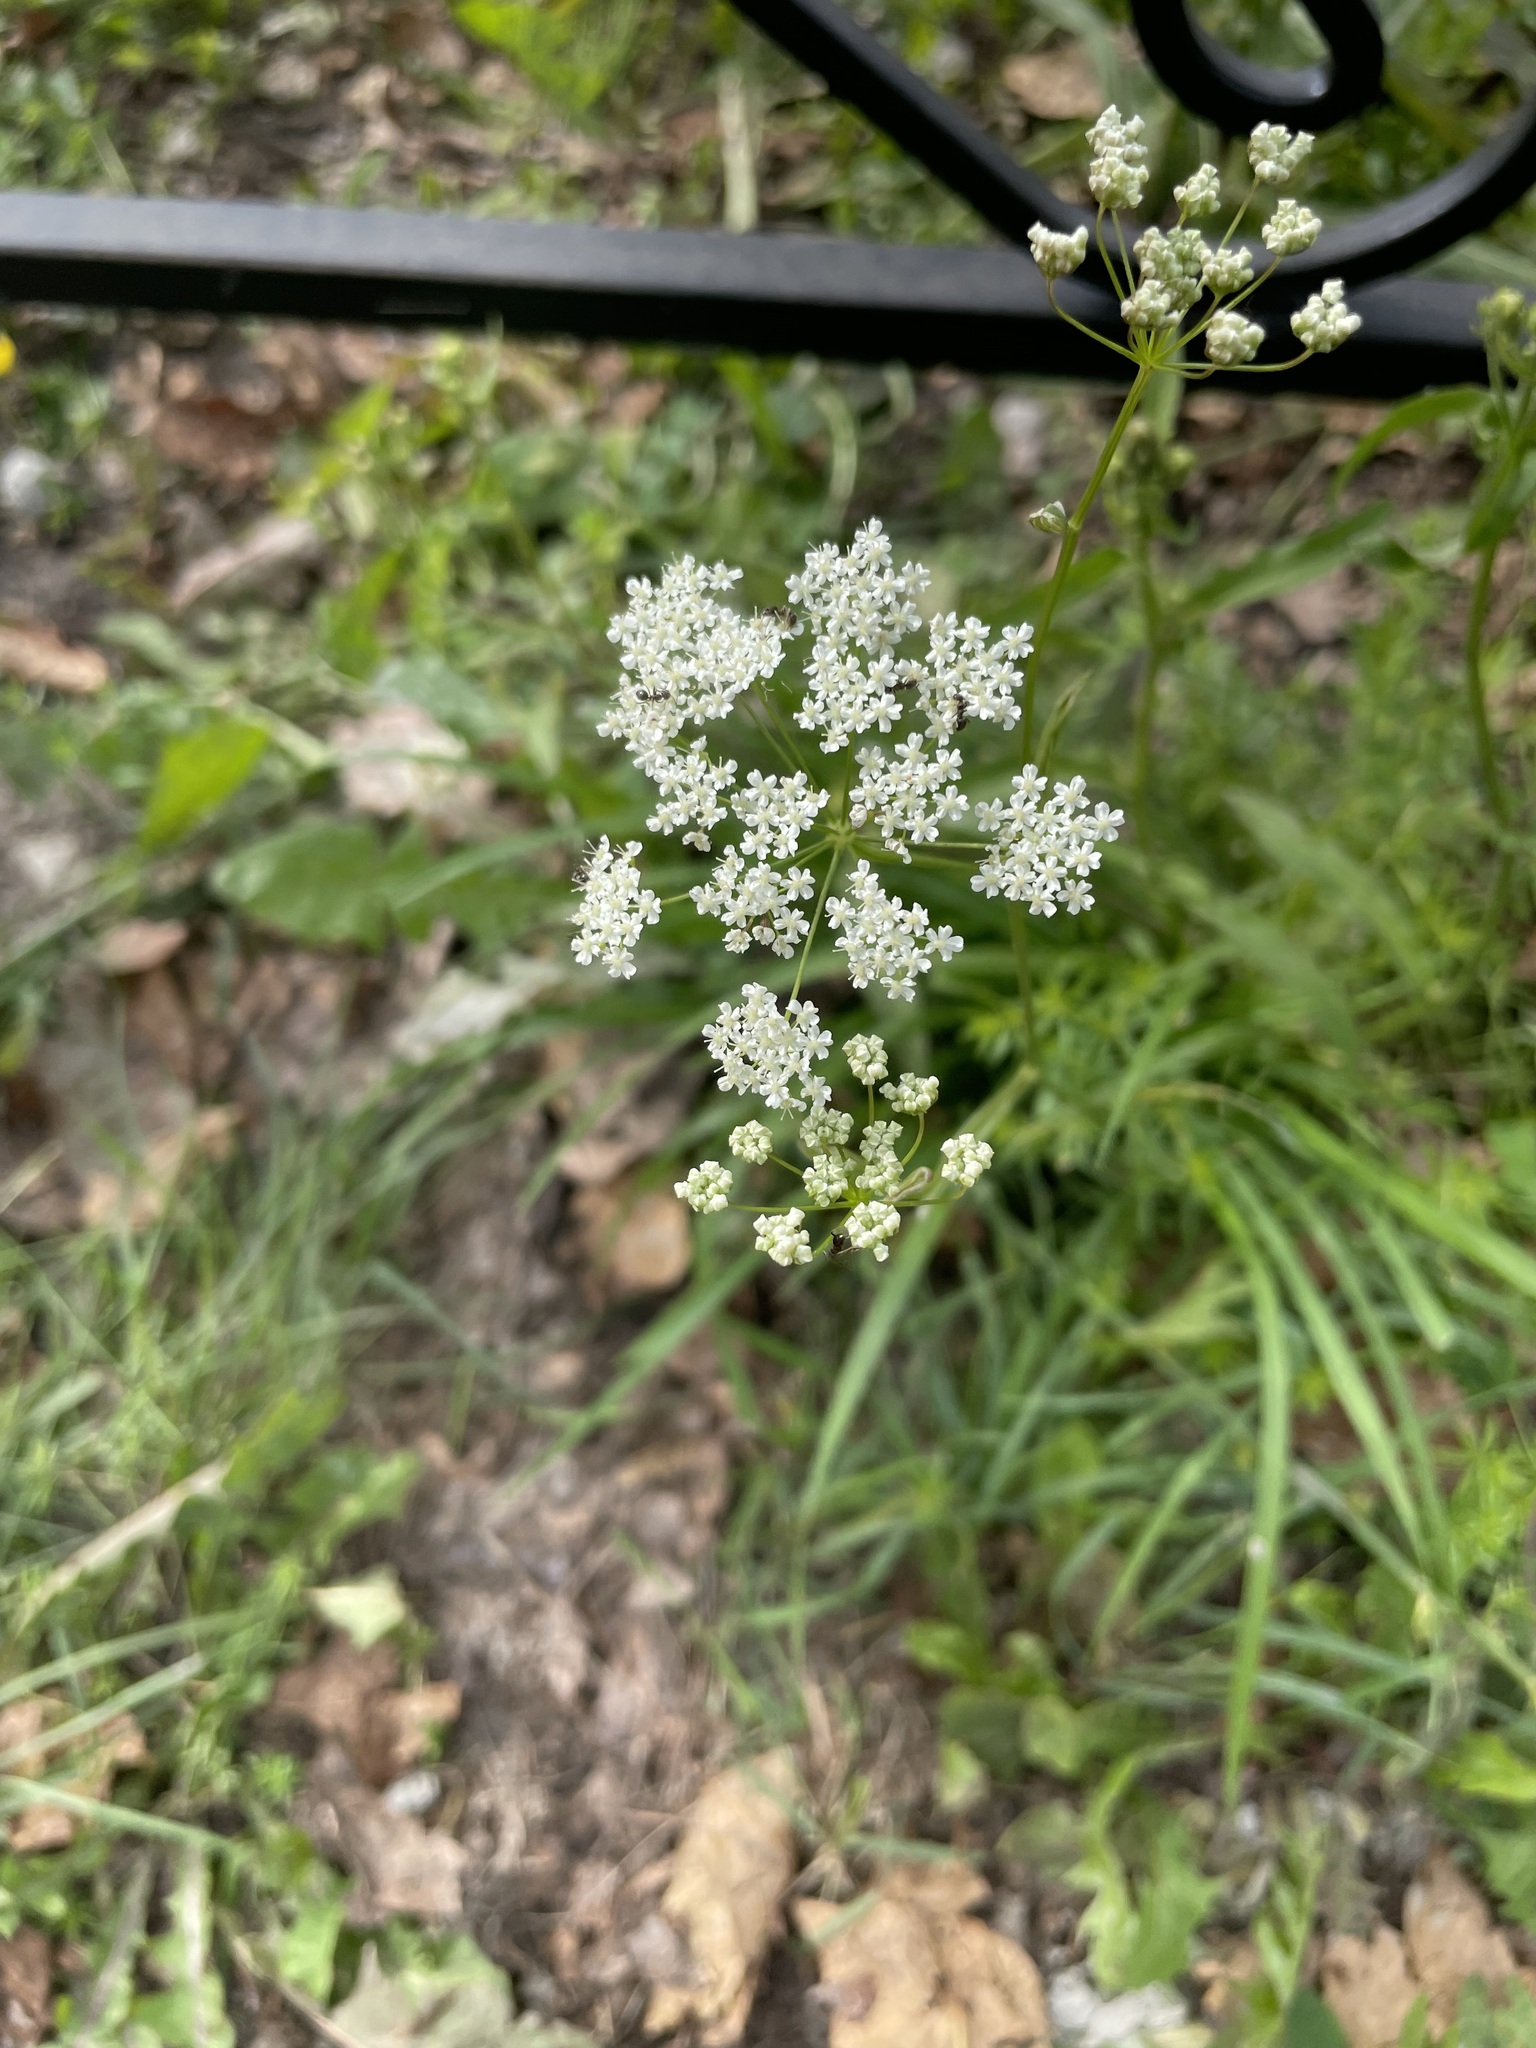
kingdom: Plantae
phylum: Tracheophyta
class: Magnoliopsida
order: Apiales
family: Apiaceae
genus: Pimpinella
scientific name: Pimpinella saxifraga
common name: Burnet-saxifrage
